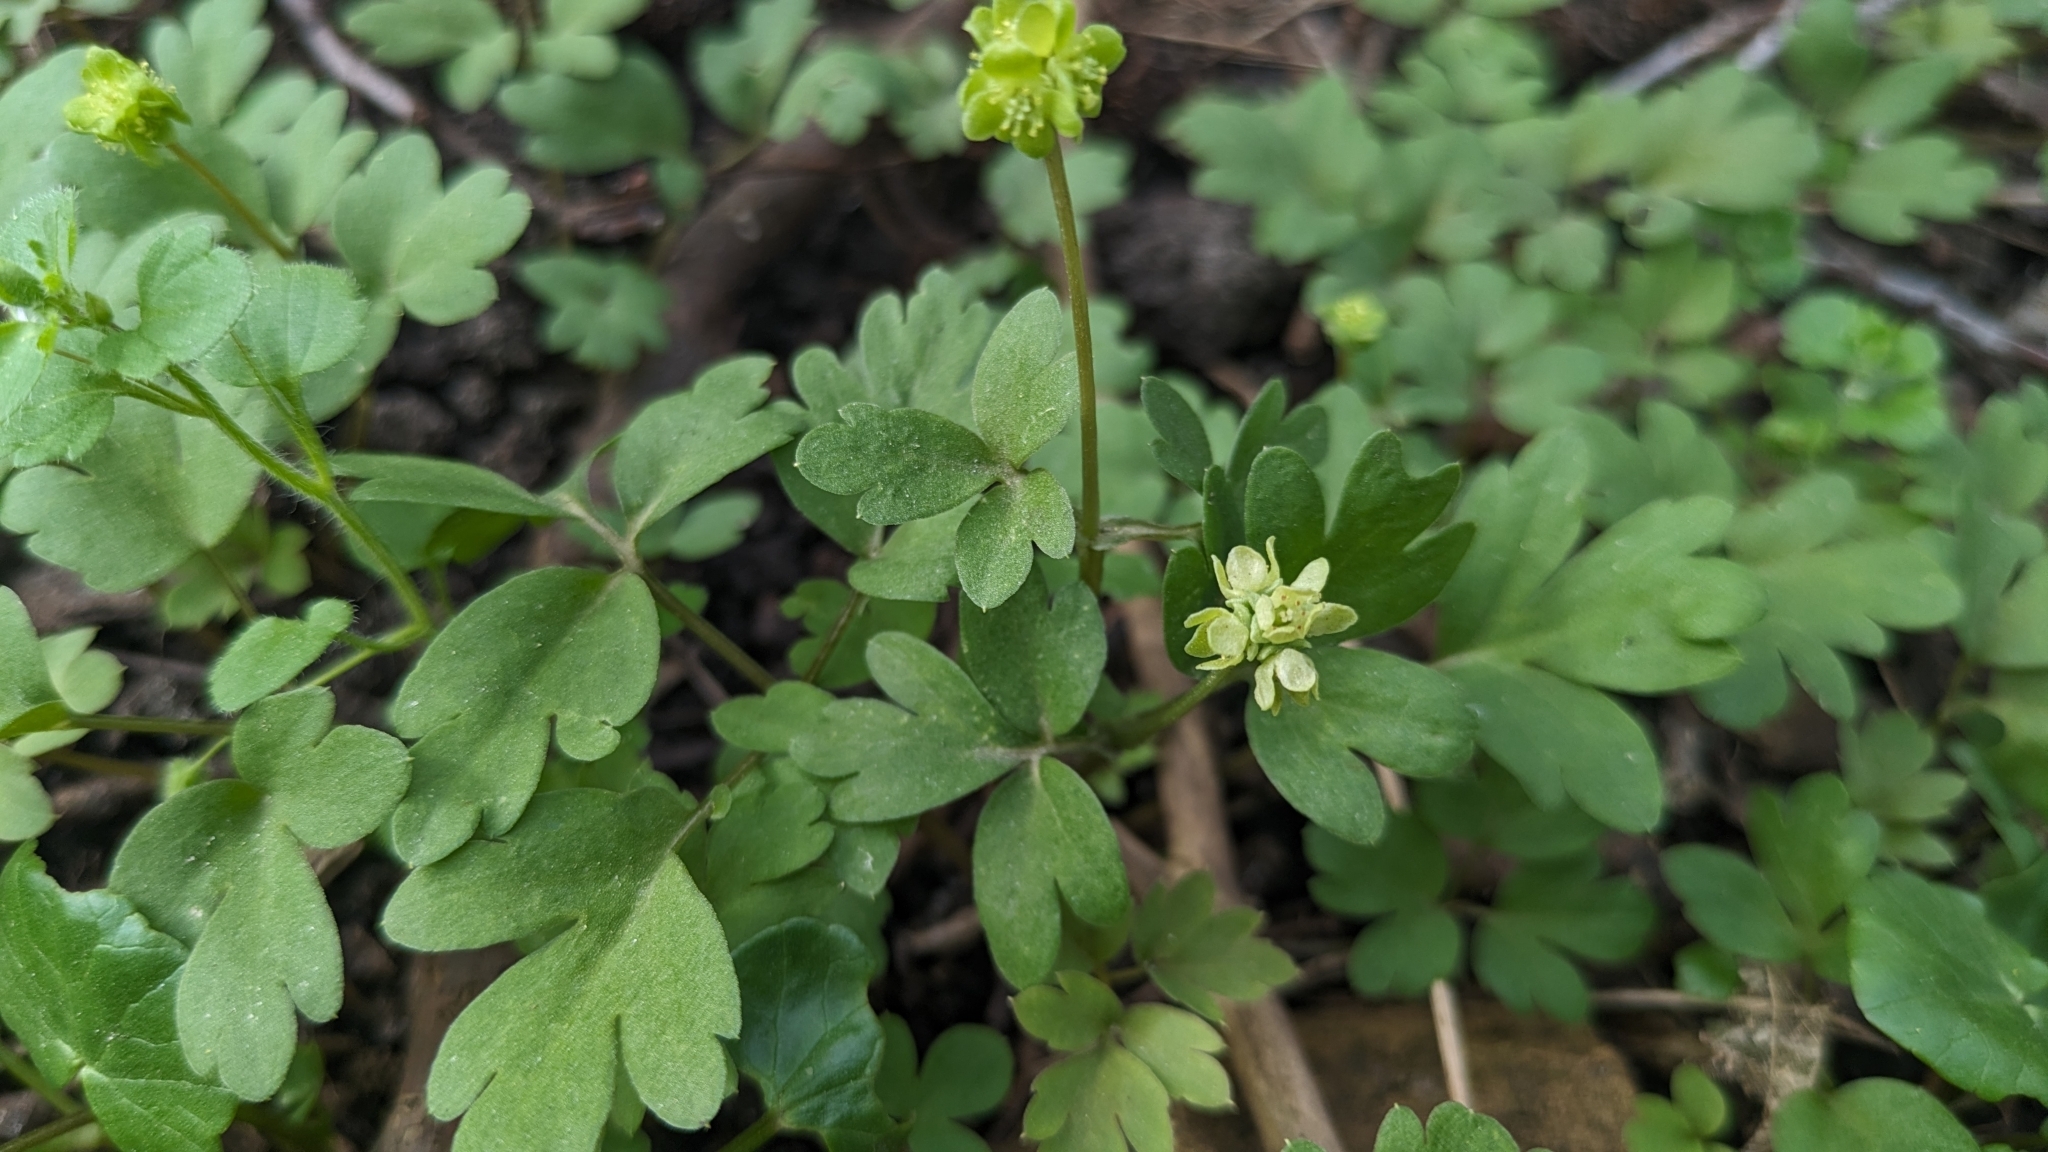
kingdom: Plantae
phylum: Tracheophyta
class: Magnoliopsida
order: Dipsacales
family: Viburnaceae
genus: Adoxa
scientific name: Adoxa moschatellina
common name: Moschatel
